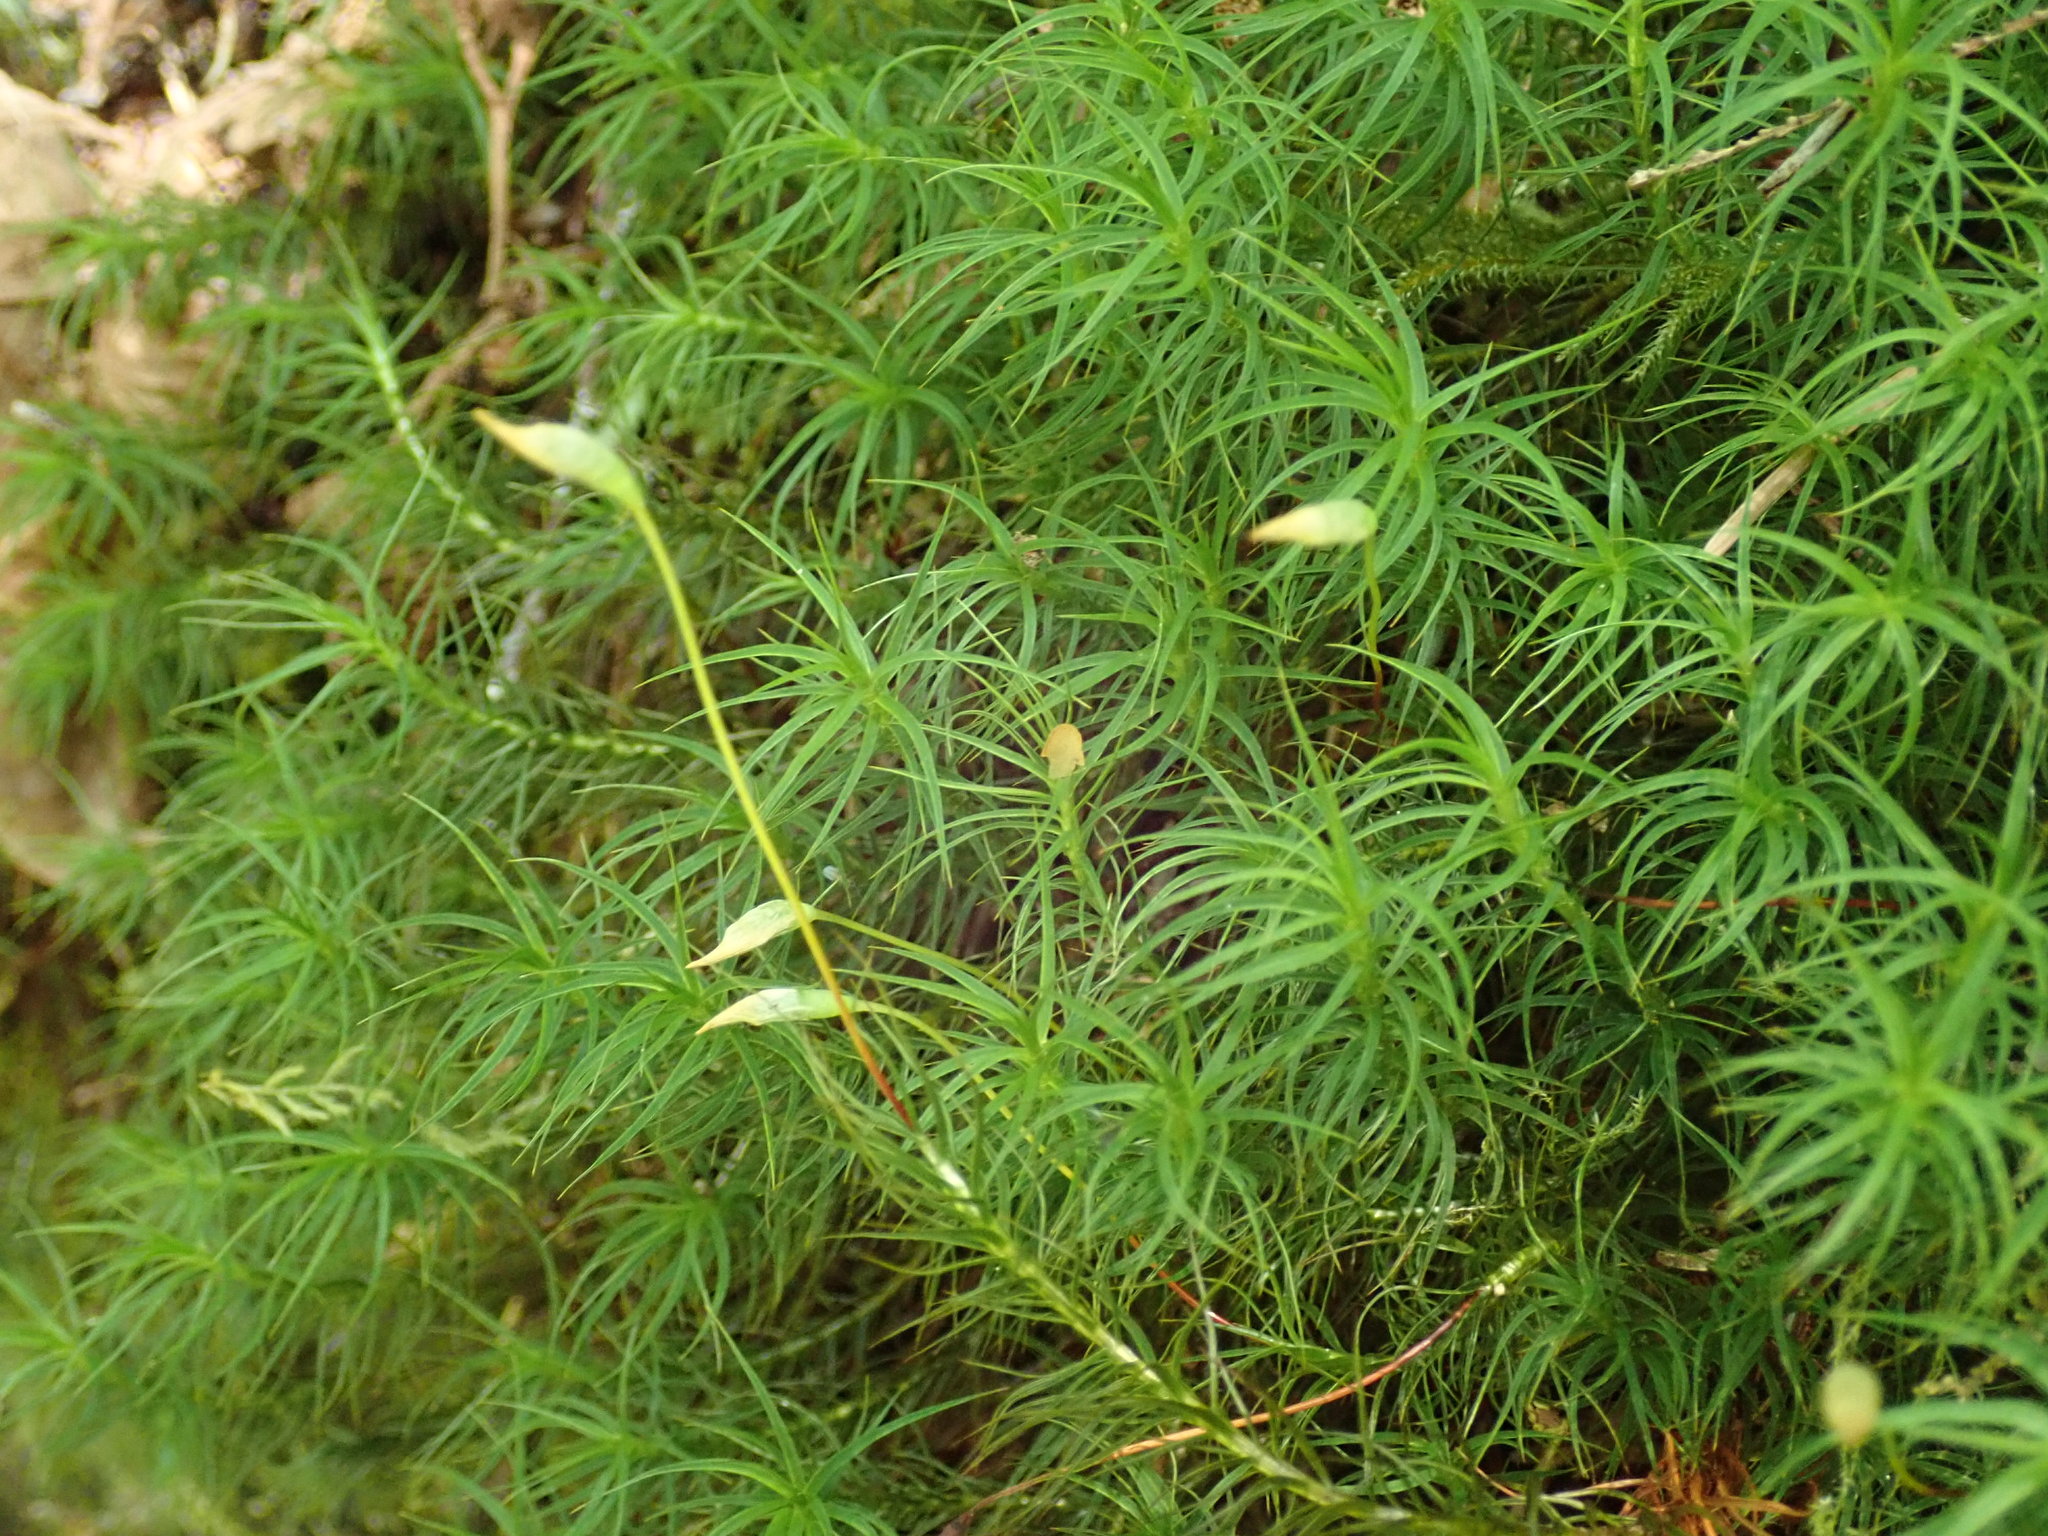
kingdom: Plantae
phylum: Bryophyta
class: Polytrichopsida
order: Polytrichales
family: Polytrichaceae
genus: Polytrichastrum
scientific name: Polytrichastrum alpinum
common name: Alpine haircap
